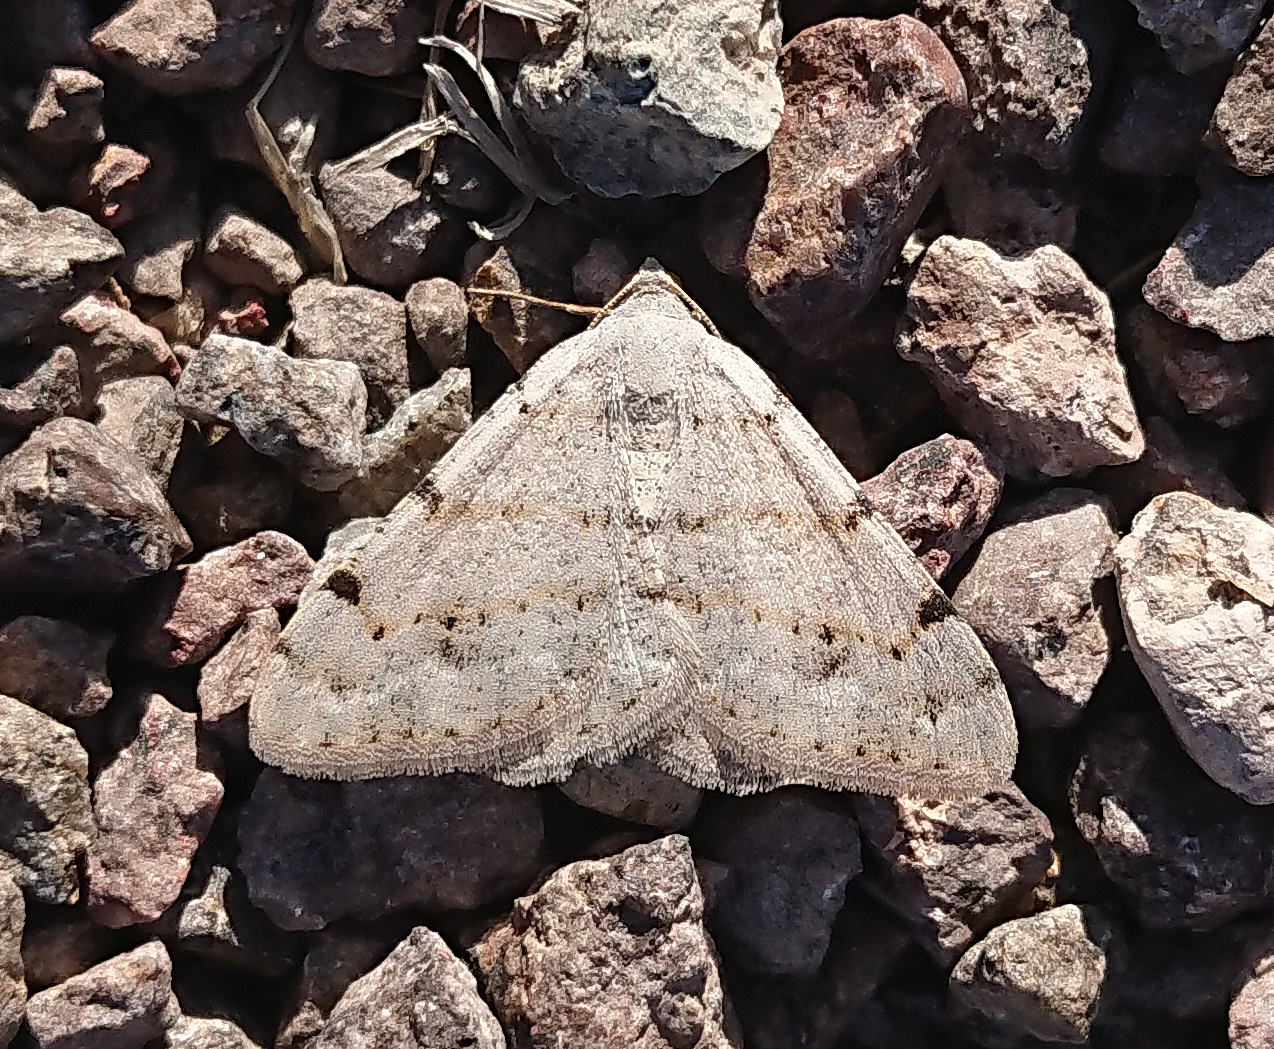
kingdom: Animalia
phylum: Arthropoda
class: Insecta
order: Lepidoptera
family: Geometridae
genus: Digrammia
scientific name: Digrammia delectata
